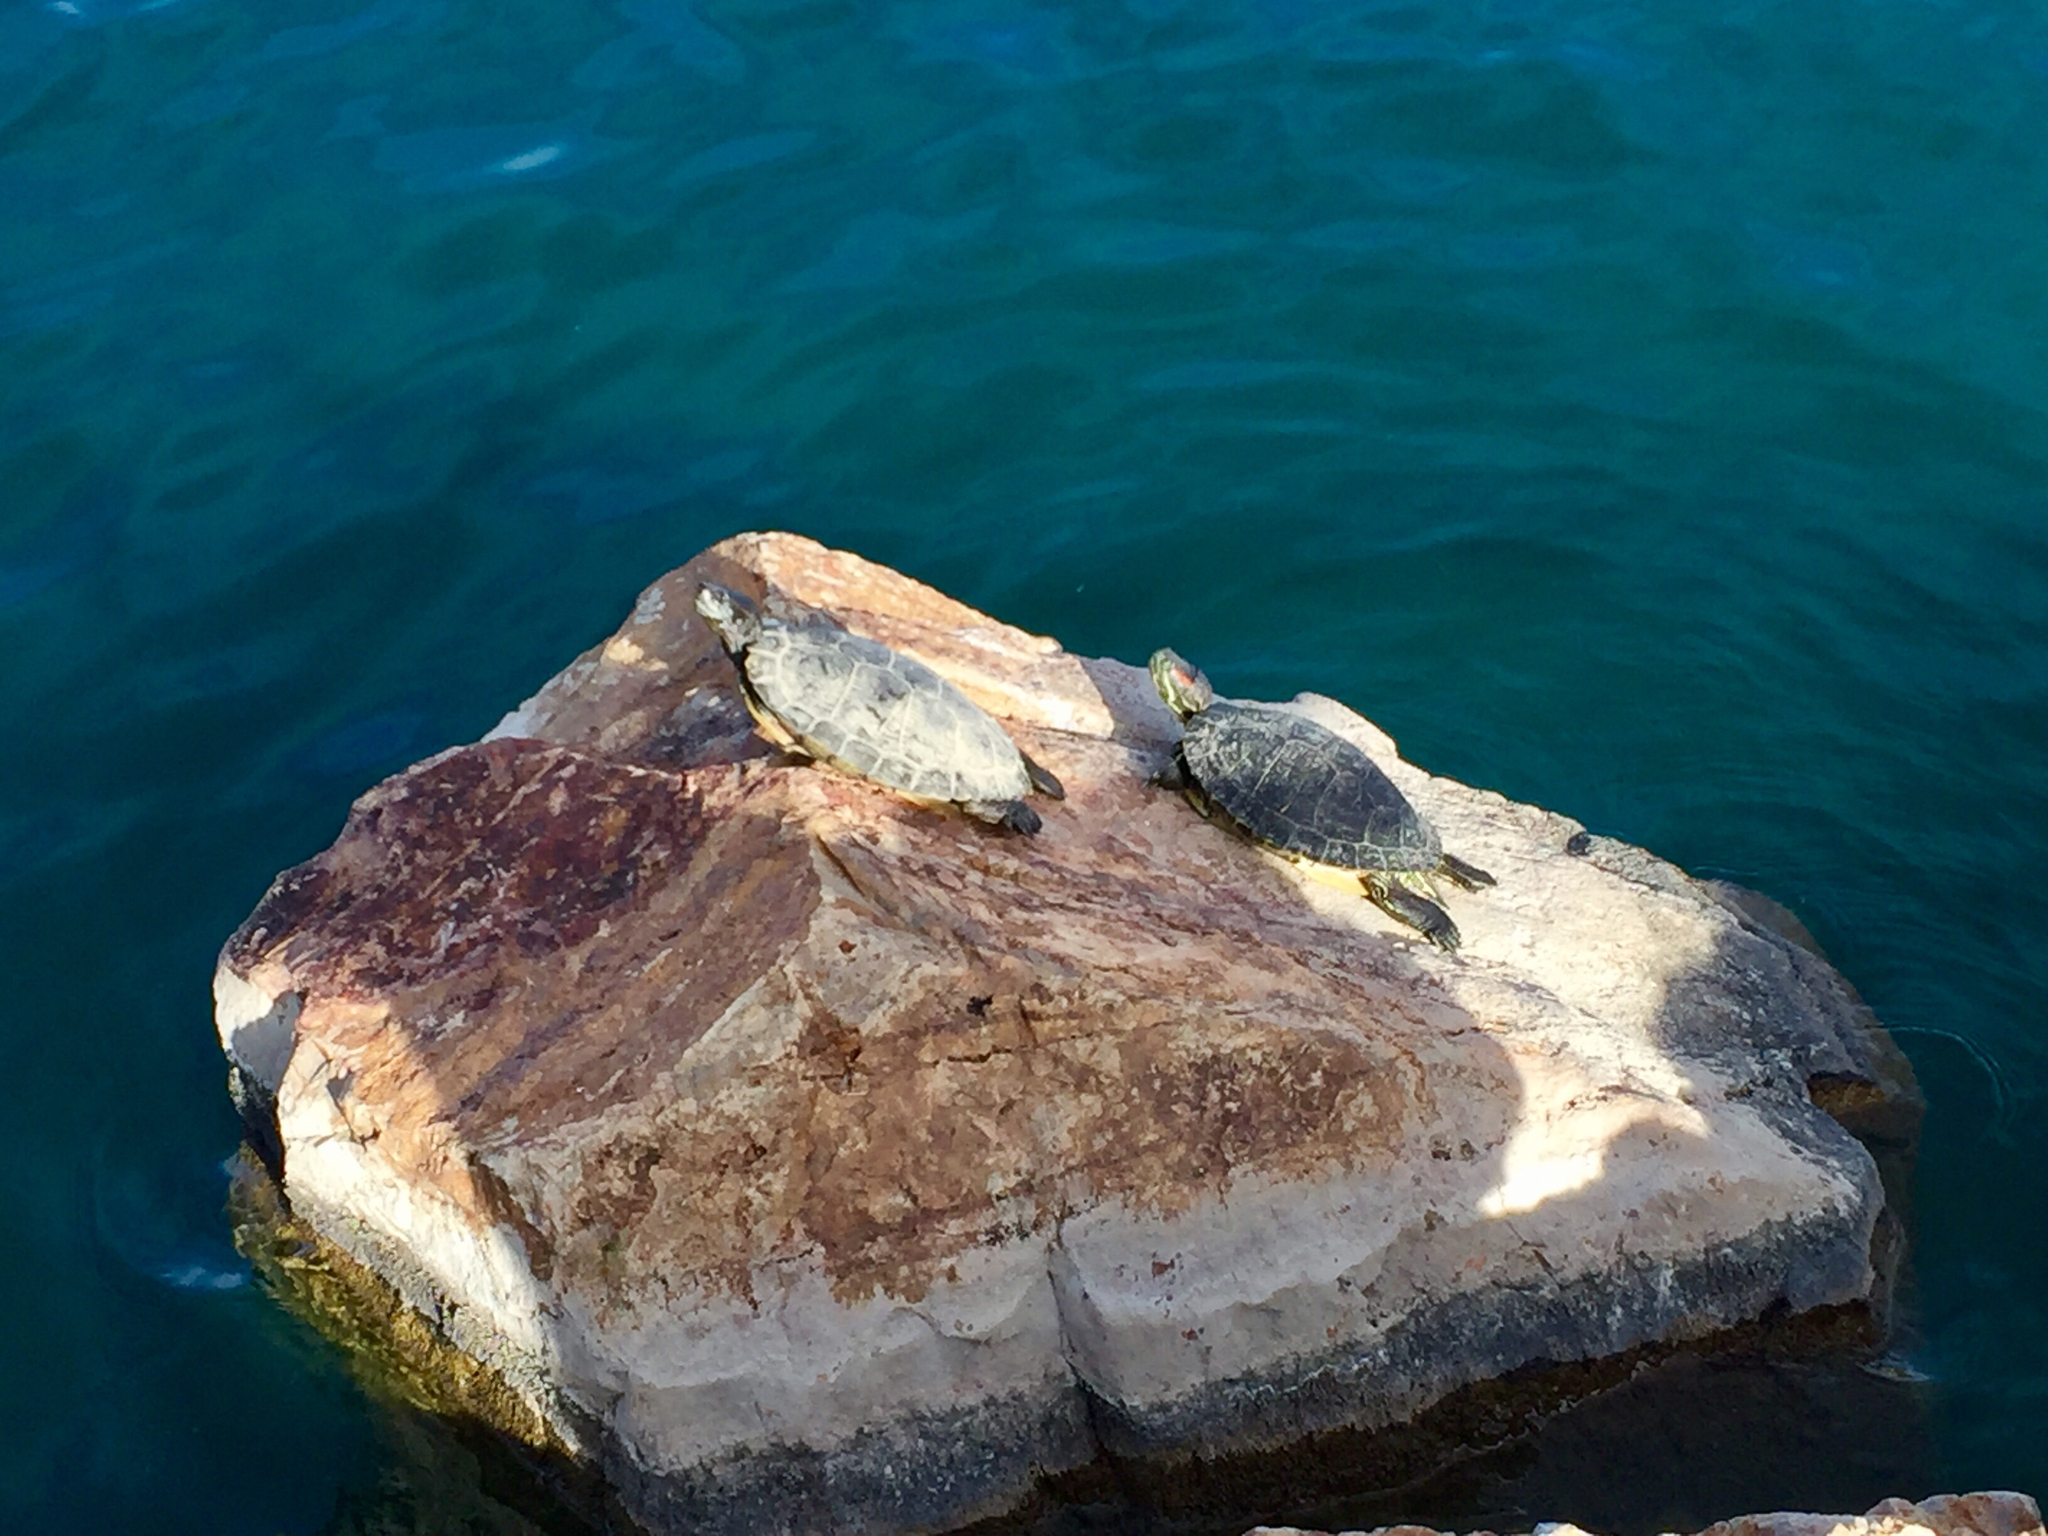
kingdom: Animalia
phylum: Chordata
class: Testudines
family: Emydidae
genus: Trachemys
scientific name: Trachemys scripta
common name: Slider
